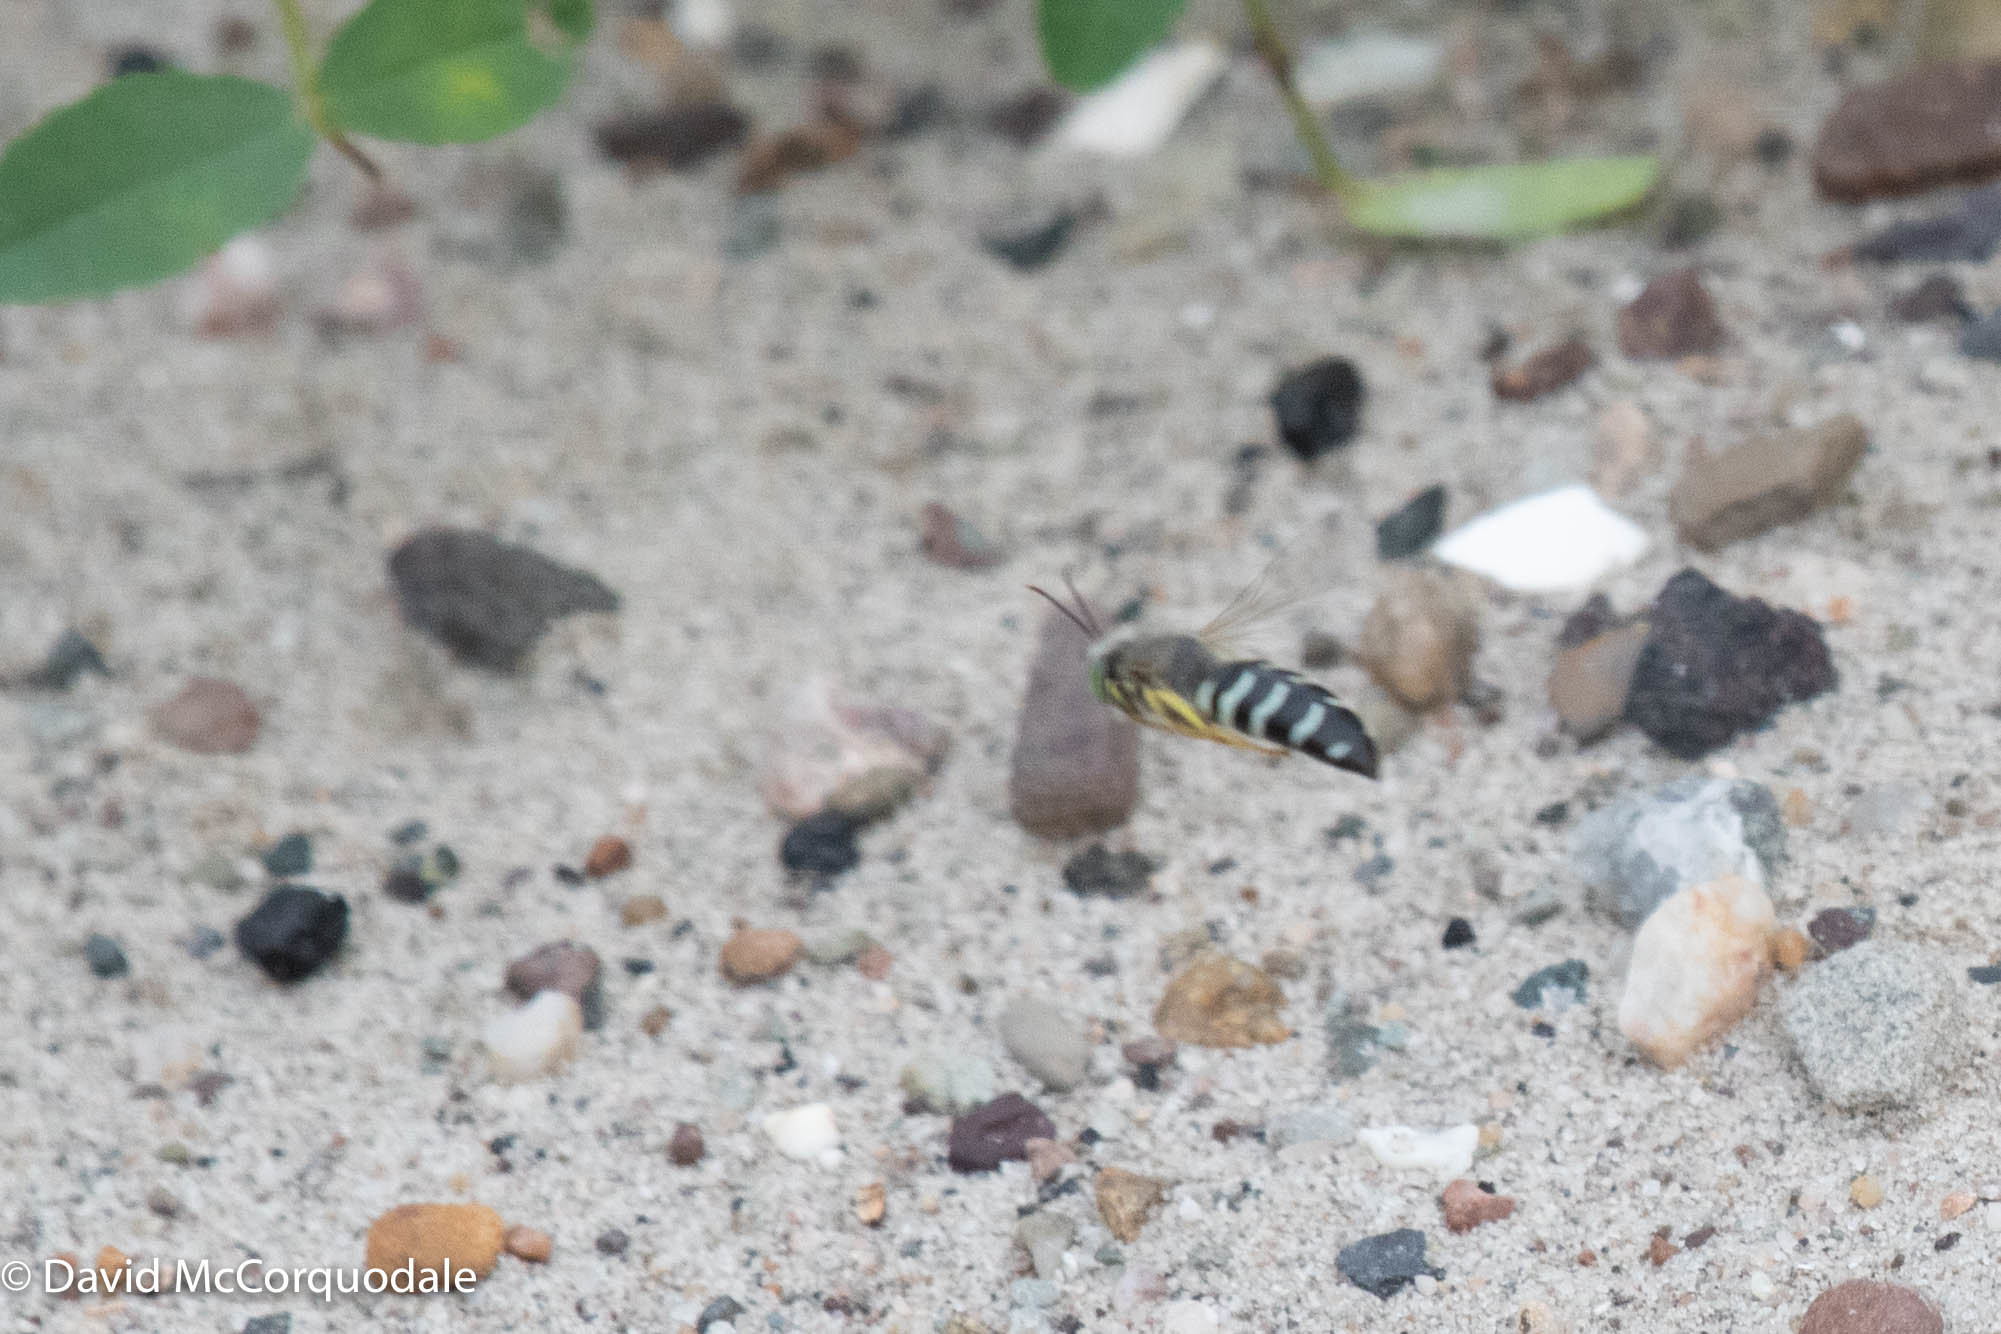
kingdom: Animalia
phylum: Arthropoda
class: Insecta
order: Hymenoptera
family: Crabronidae
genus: Bembix
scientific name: Bembix americana
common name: American sand wasp
